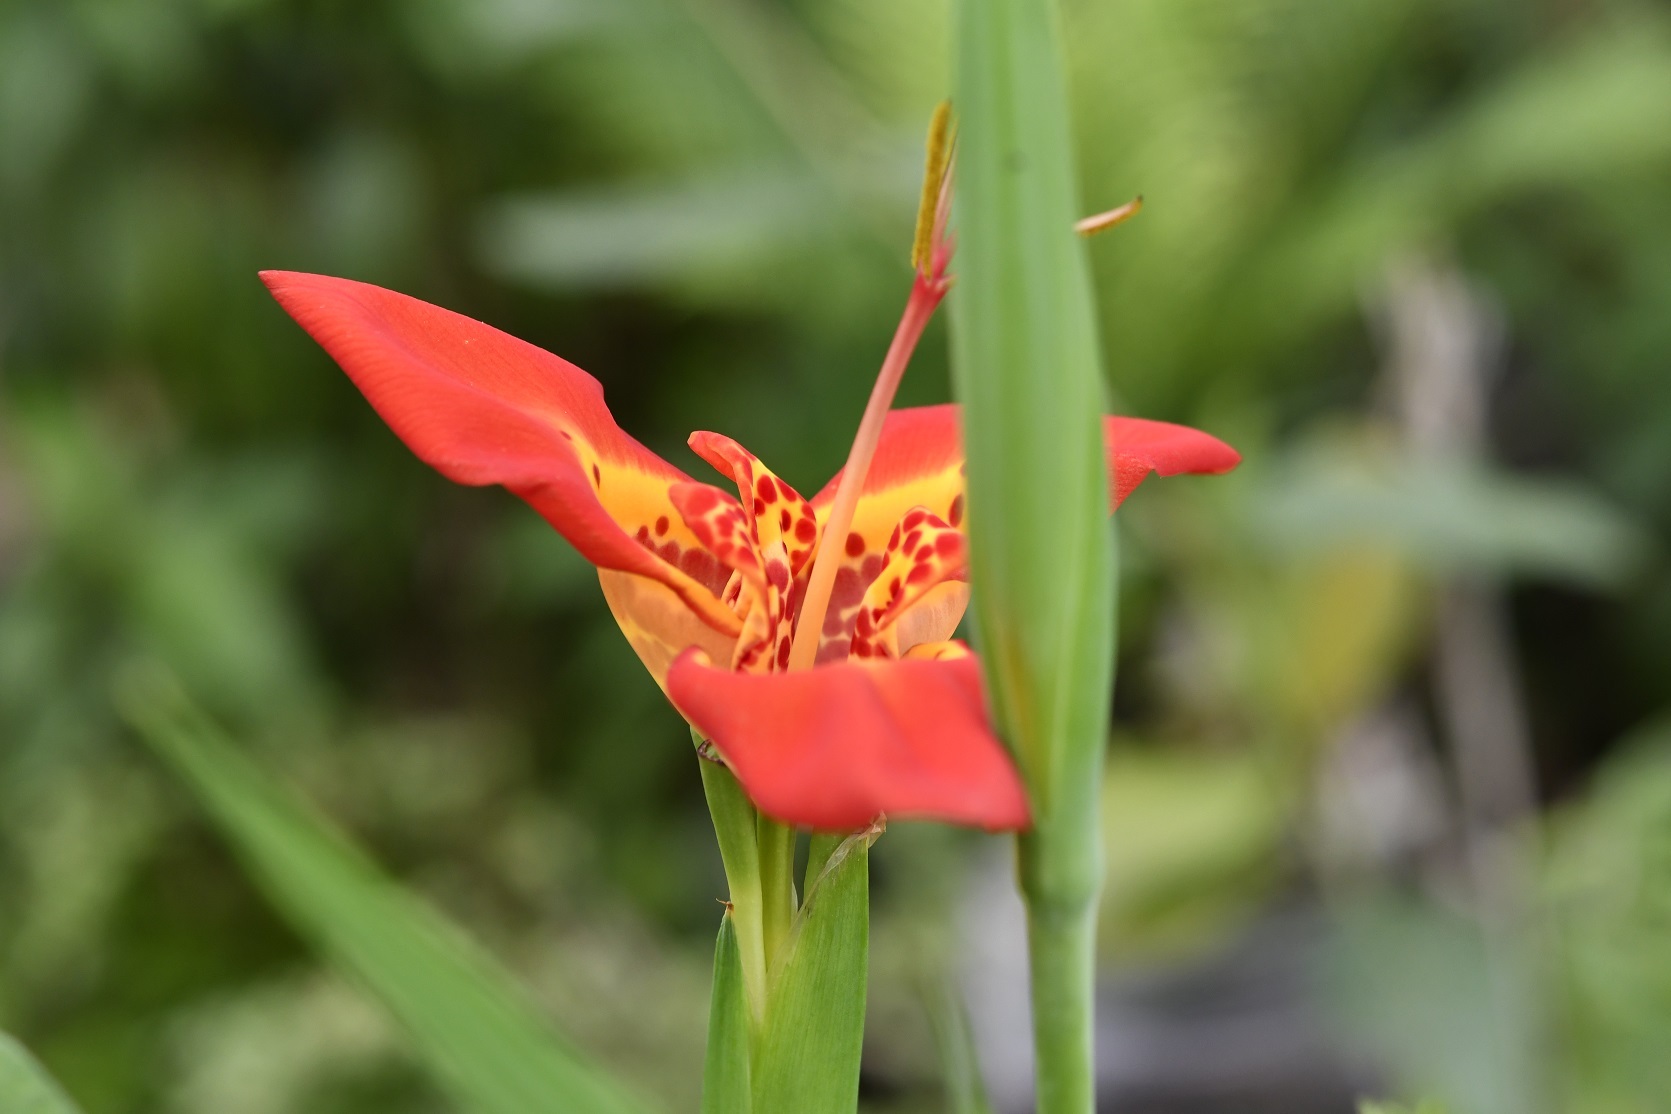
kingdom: Plantae
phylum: Tracheophyta
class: Liliopsida
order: Asparagales
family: Iridaceae
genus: Tigridia
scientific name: Tigridia pavonia
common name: Peacock-flower
